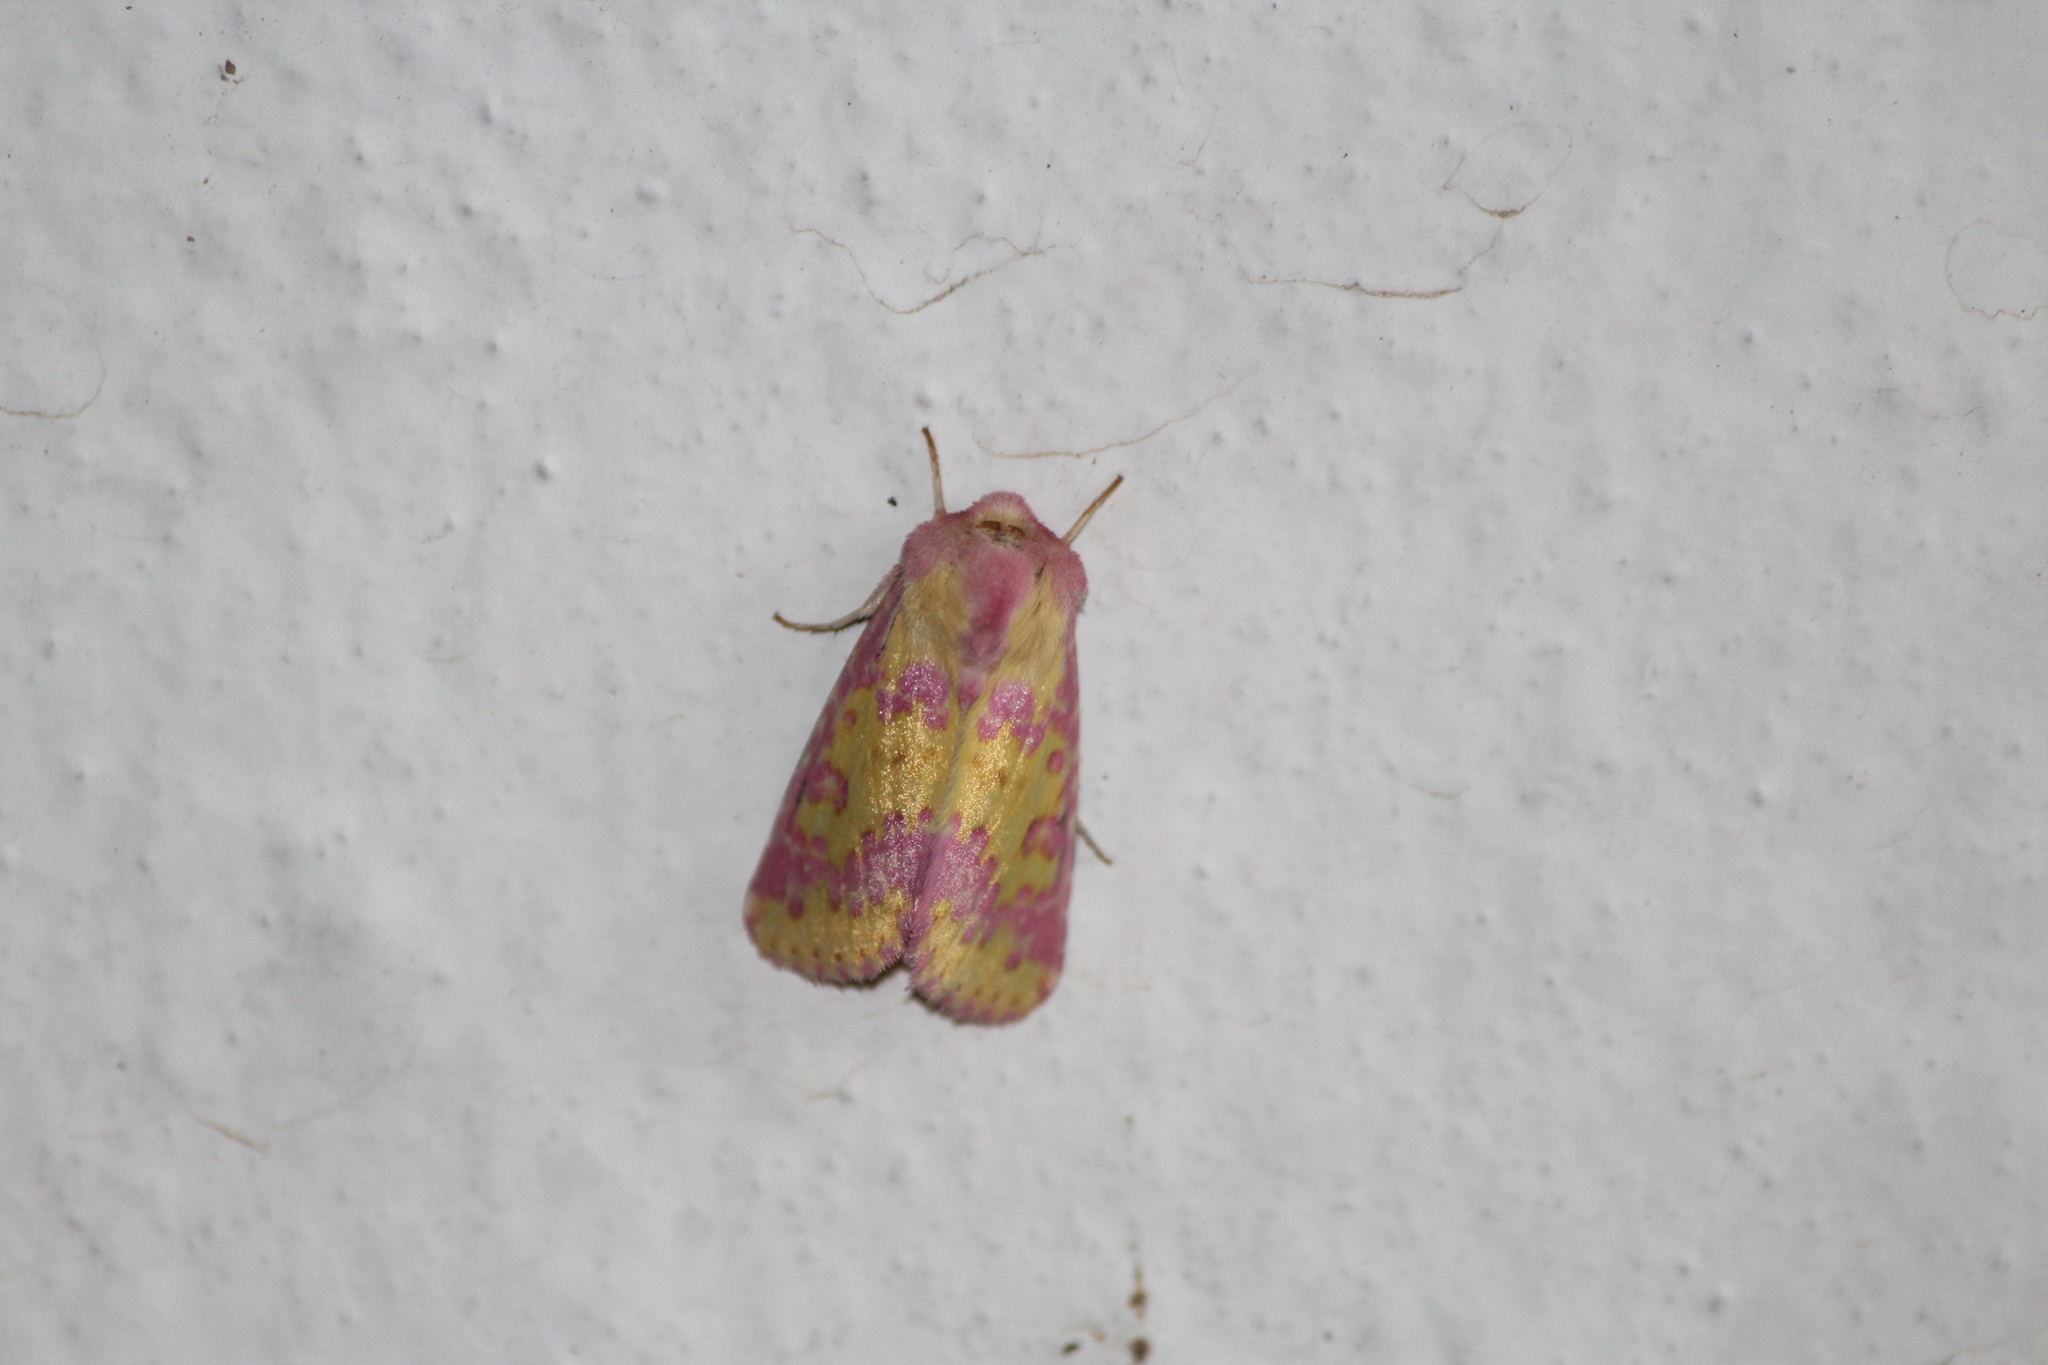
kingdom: Animalia
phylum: Arthropoda
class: Insecta
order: Lepidoptera
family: Noctuidae
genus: Erythroecia
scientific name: Erythroecia euposis
